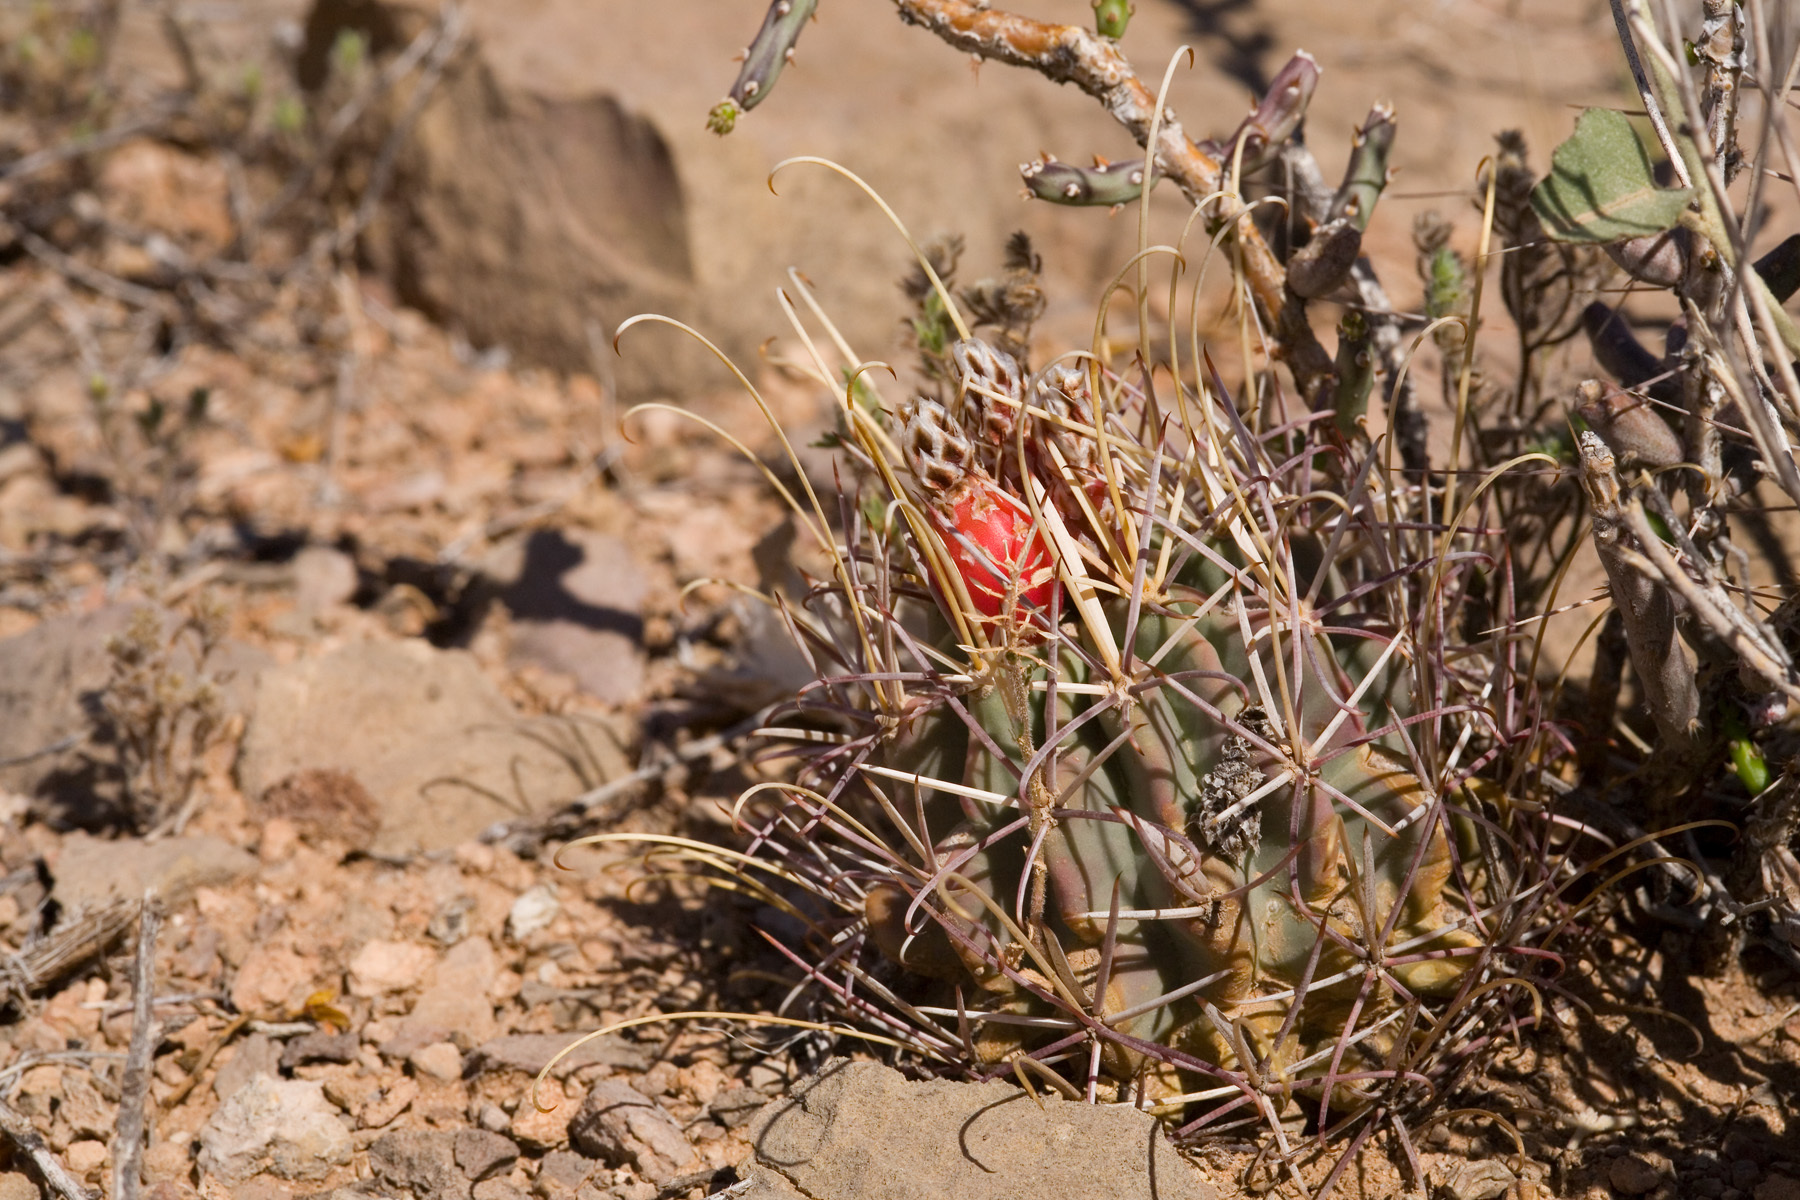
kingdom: Plantae
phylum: Tracheophyta
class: Magnoliopsida
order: Caryophyllales
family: Cactaceae
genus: Ferocactus
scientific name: Ferocactus uncinatus
